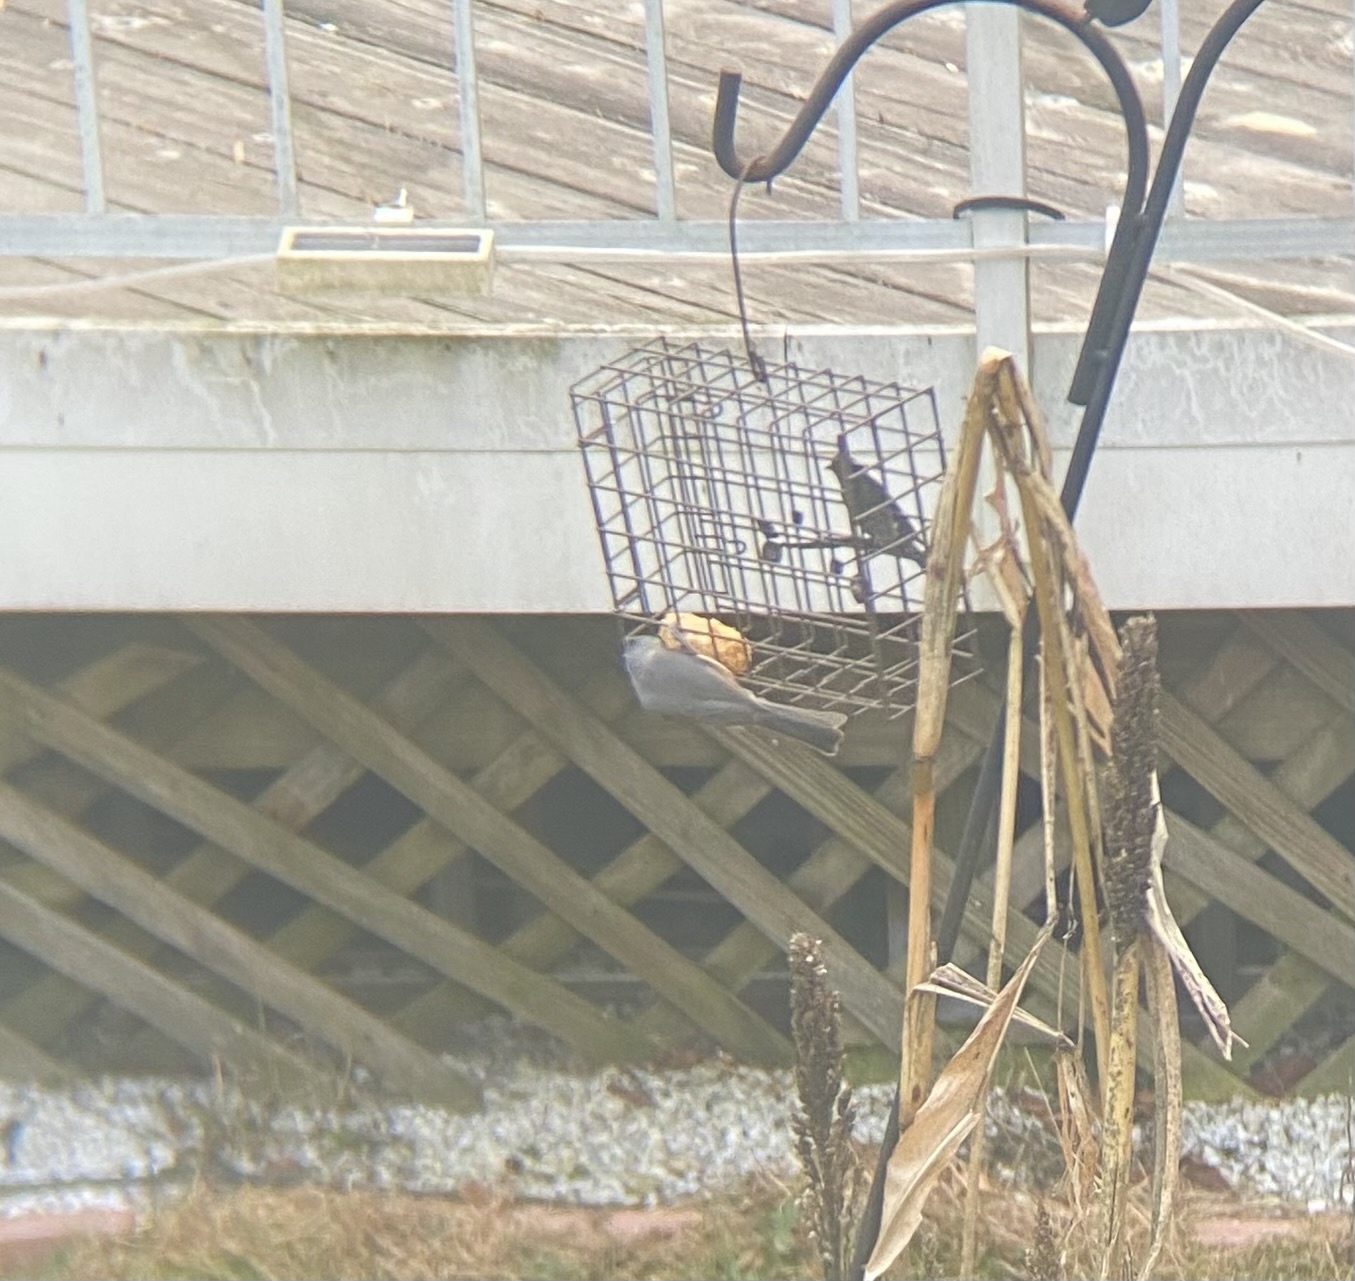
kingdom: Animalia
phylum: Chordata
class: Aves
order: Passeriformes
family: Paridae
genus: Baeolophus
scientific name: Baeolophus bicolor
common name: Tufted titmouse
